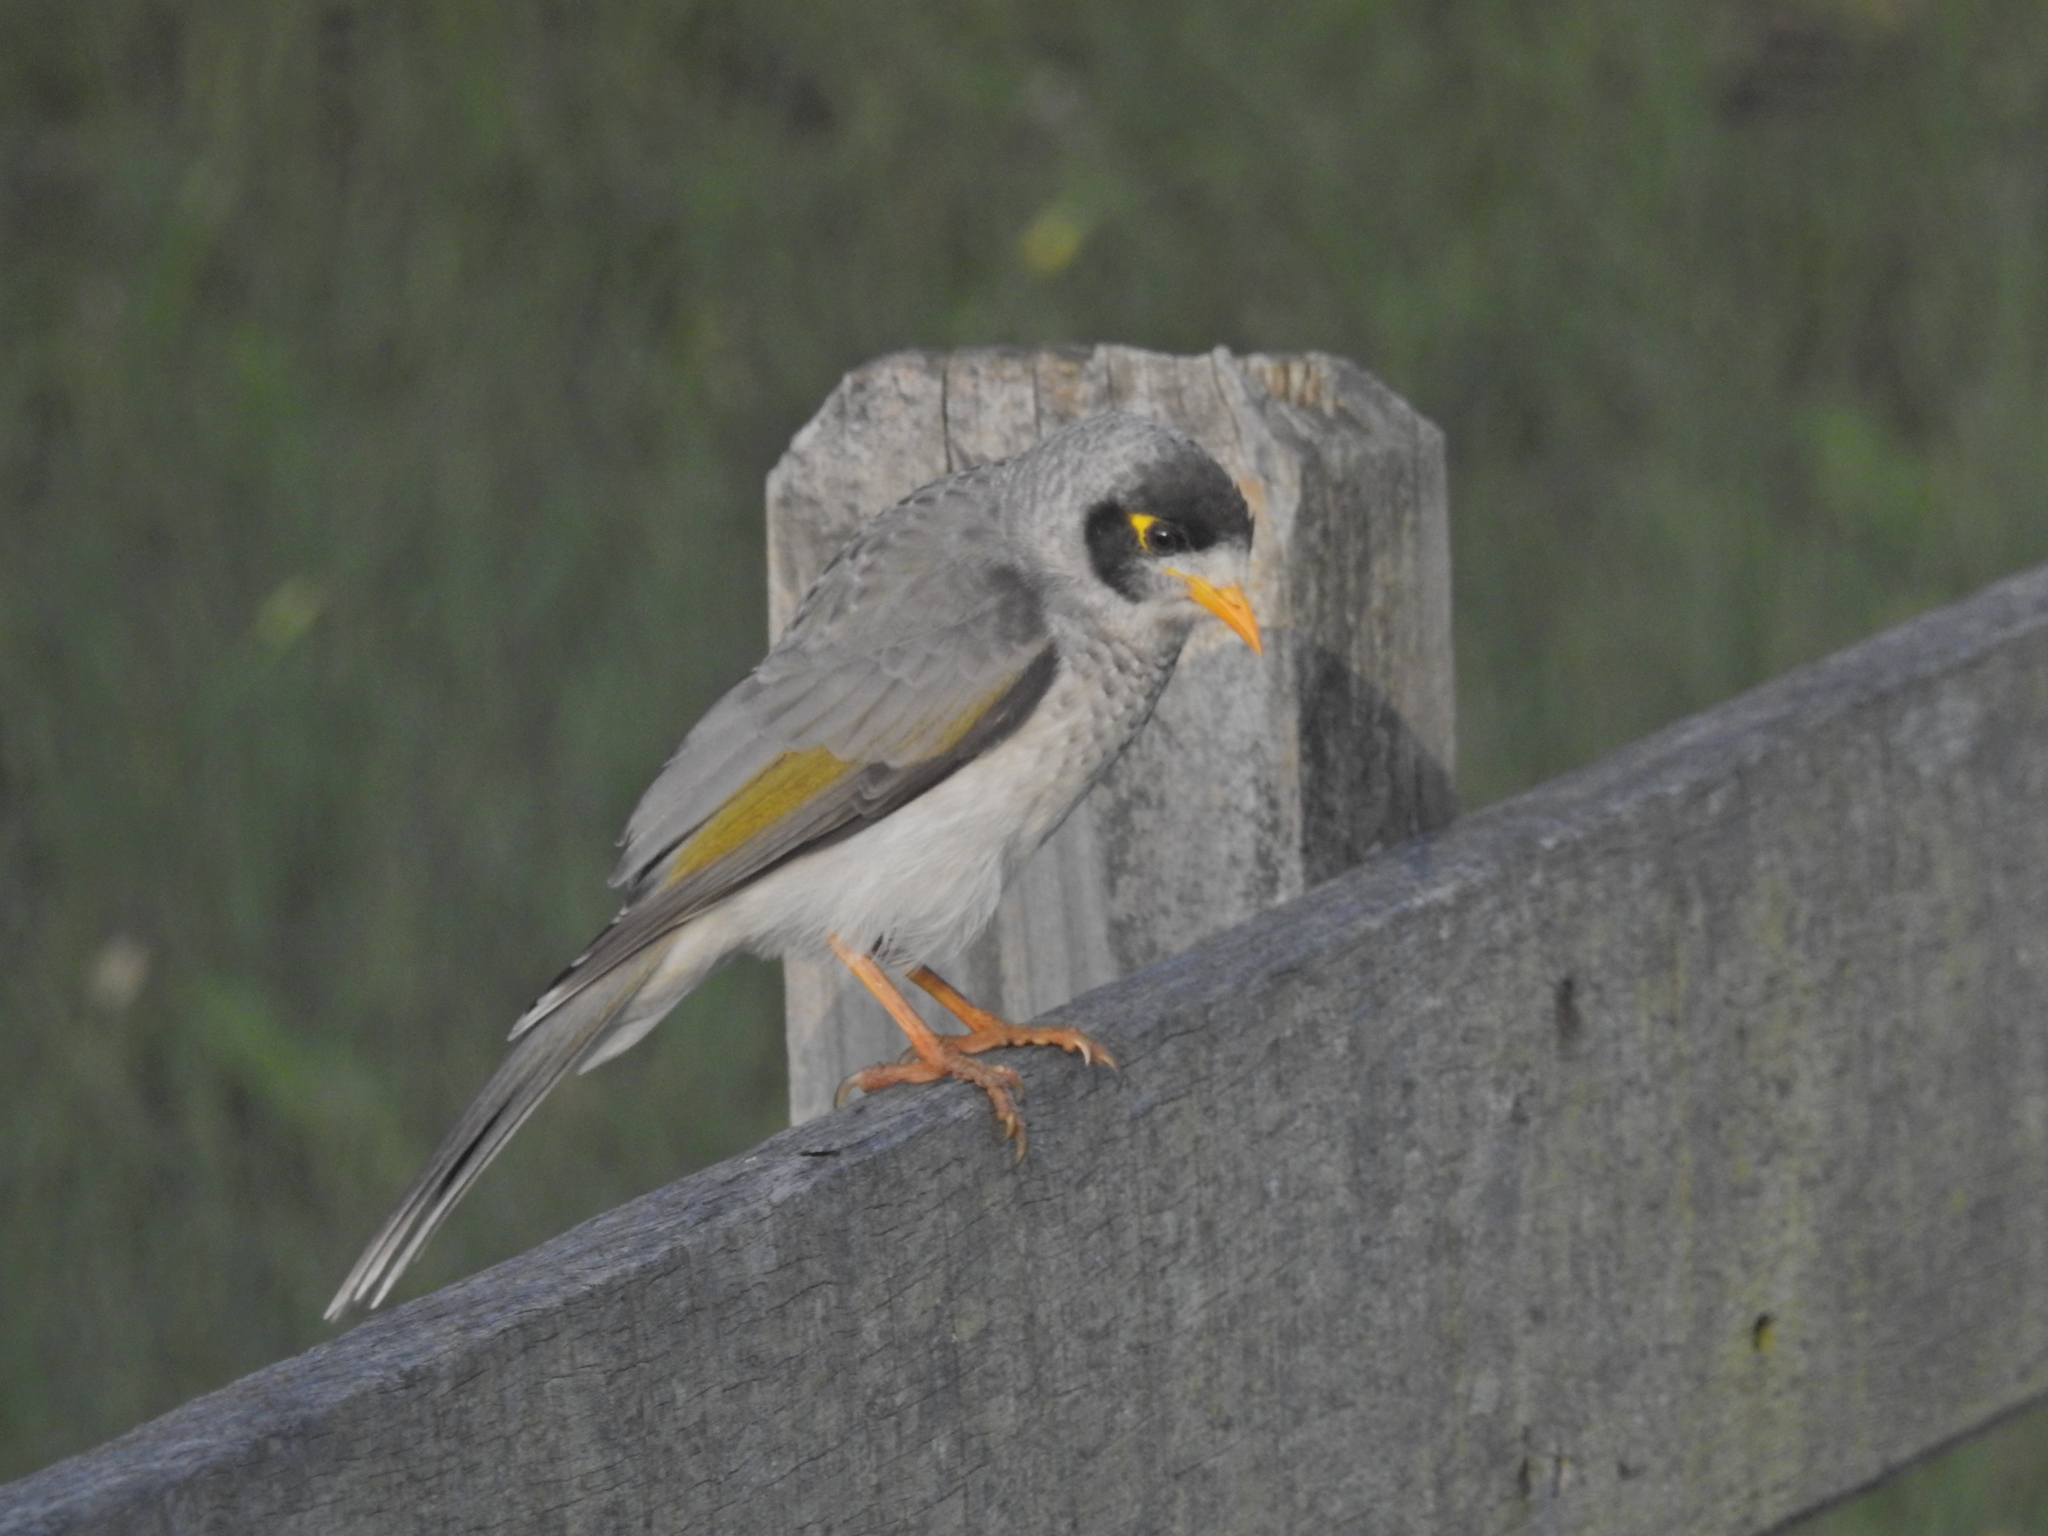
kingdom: Animalia
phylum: Chordata
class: Aves
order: Passeriformes
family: Meliphagidae
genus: Manorina
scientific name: Manorina melanocephala
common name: Noisy miner
